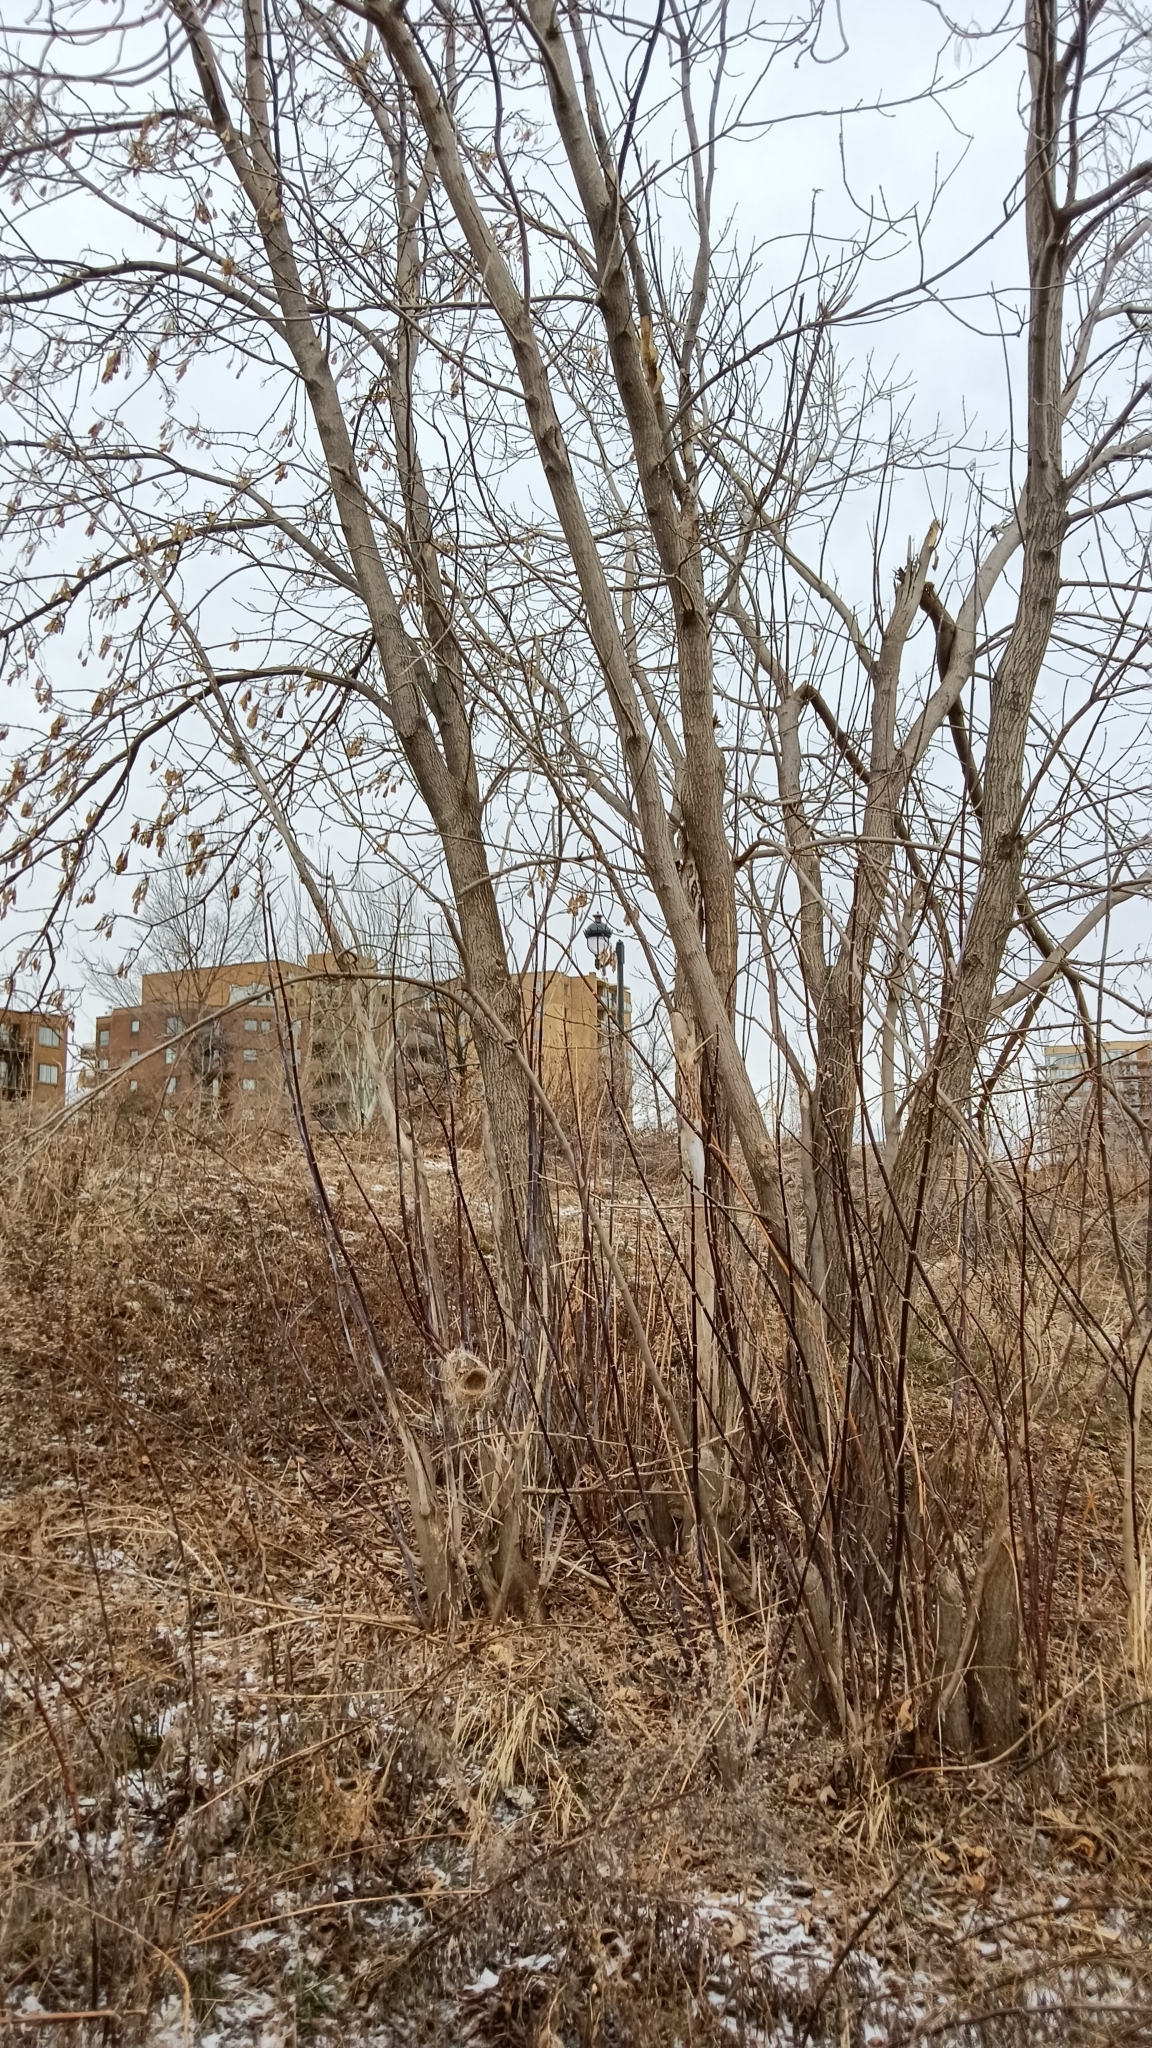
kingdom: Plantae
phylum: Tracheophyta
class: Magnoliopsida
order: Sapindales
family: Sapindaceae
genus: Acer
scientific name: Acer negundo
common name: Ashleaf maple
